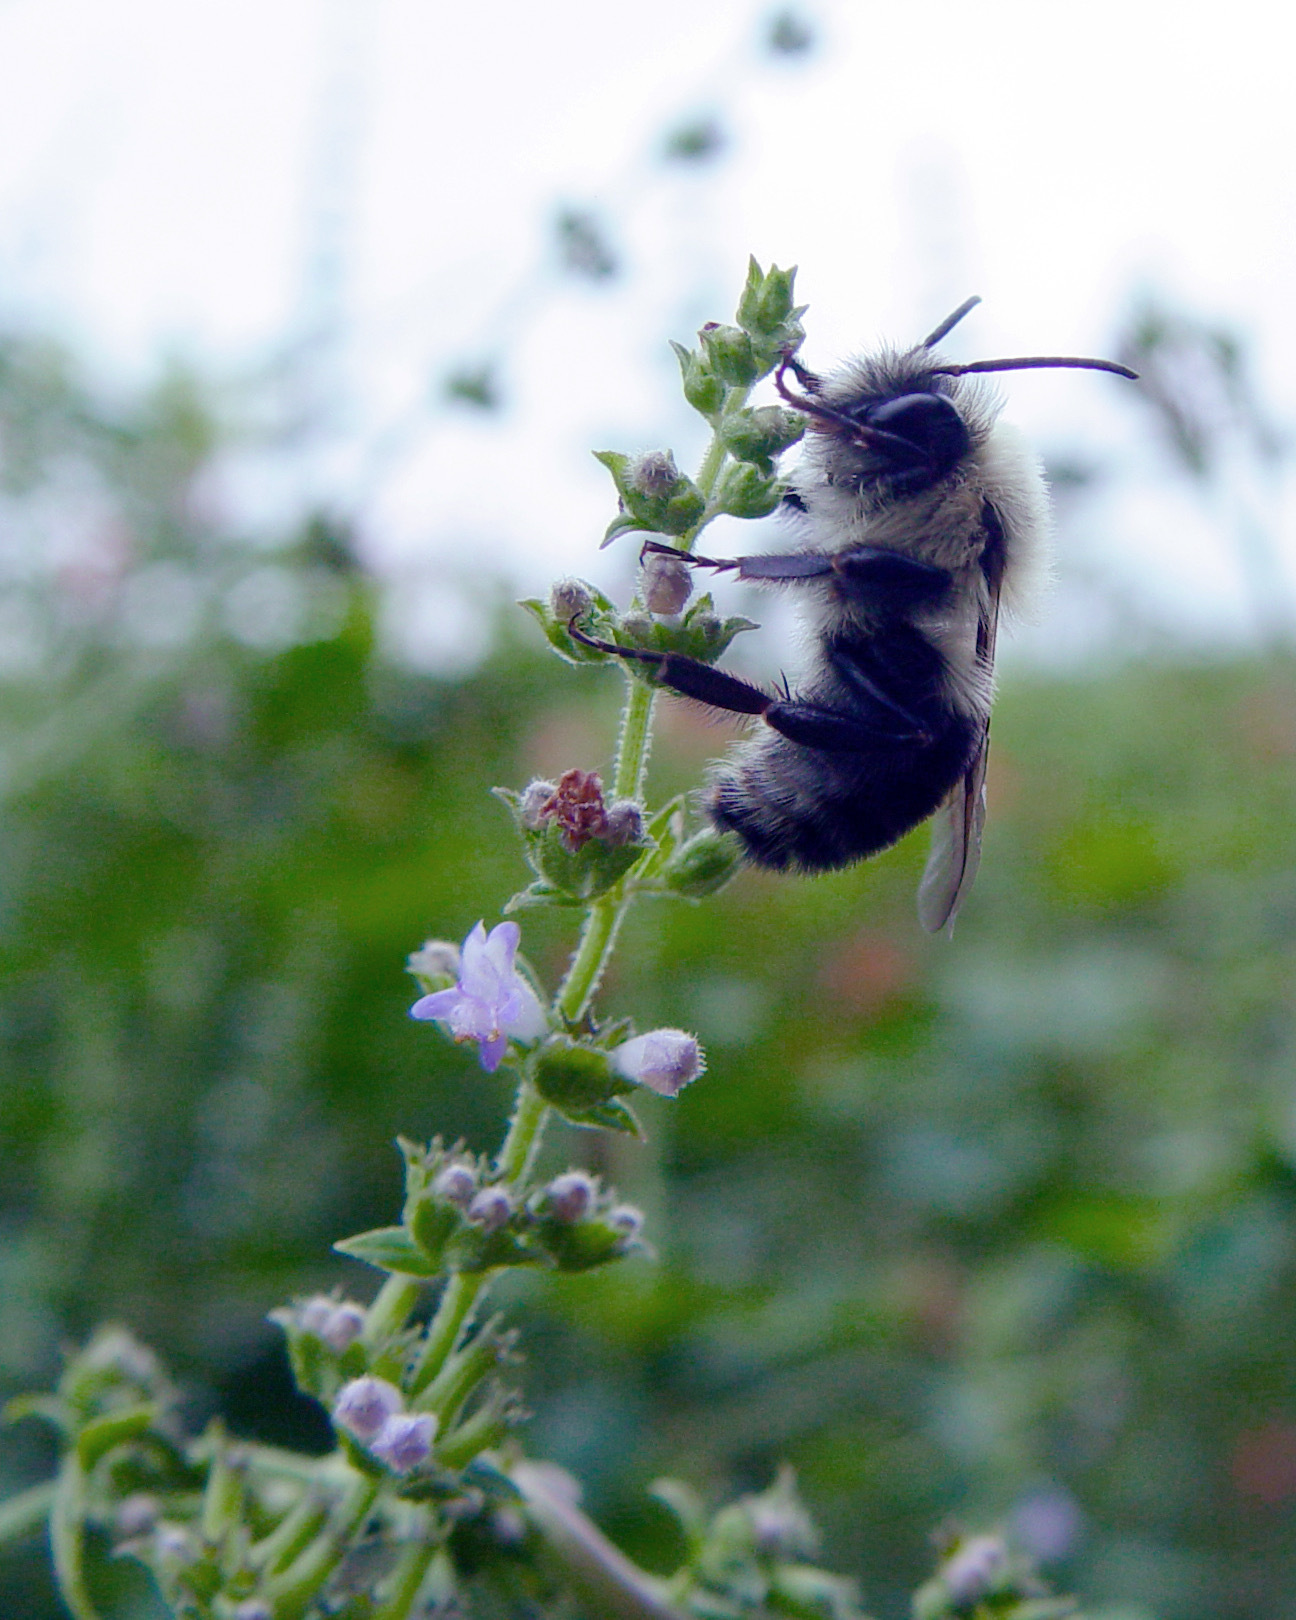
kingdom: Animalia
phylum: Arthropoda
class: Insecta
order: Hymenoptera
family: Apidae
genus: Bombus
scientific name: Bombus impatiens
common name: Common eastern bumble bee
